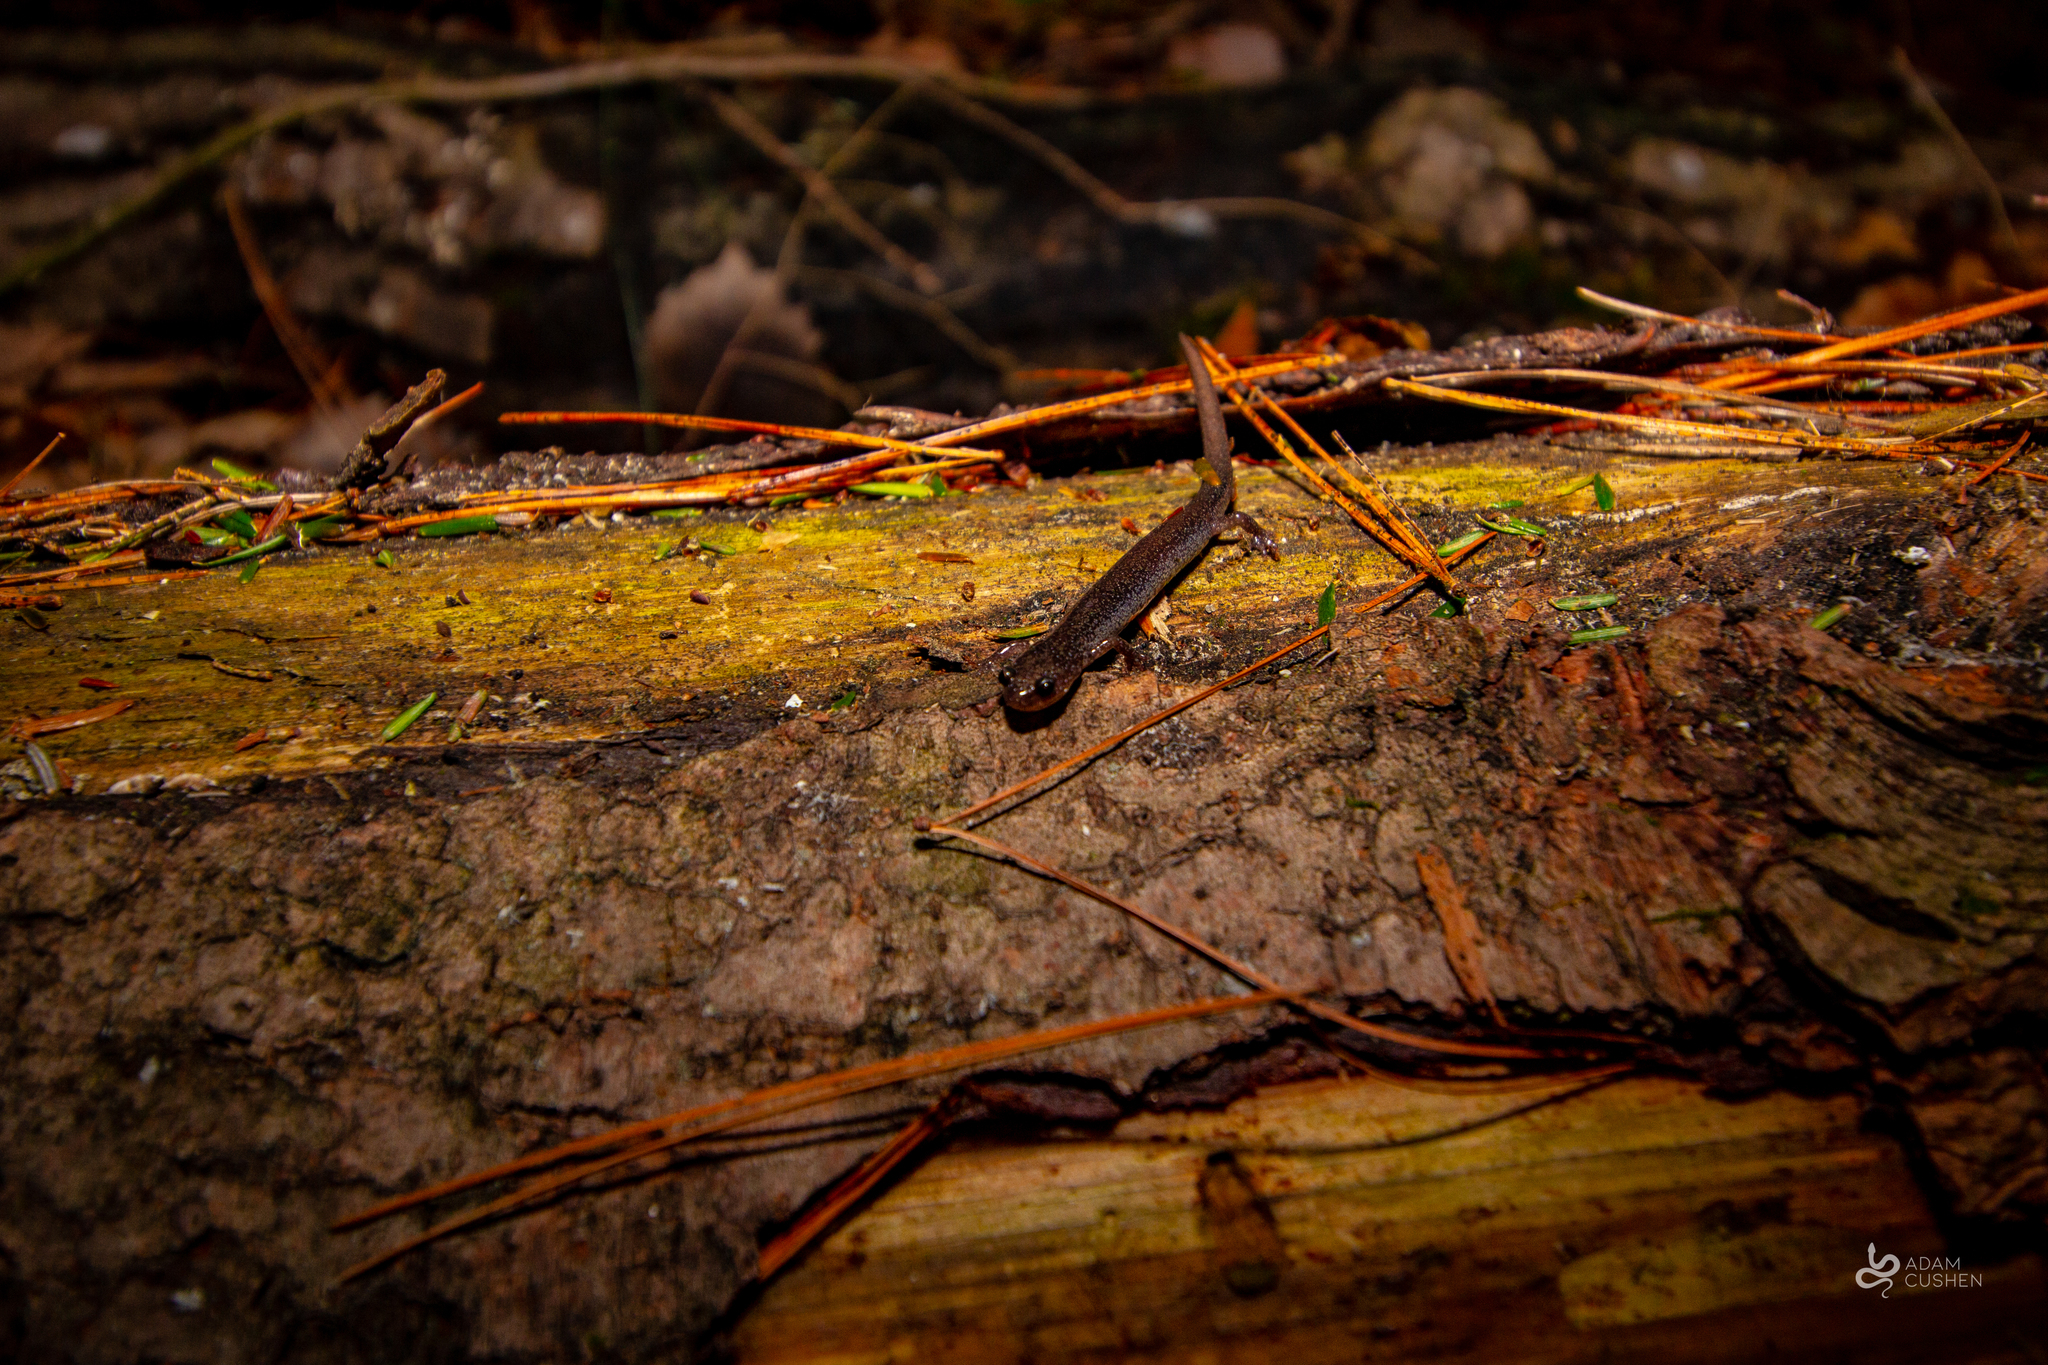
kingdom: Animalia
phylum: Chordata
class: Amphibia
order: Caudata
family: Plethodontidae
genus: Plethodon
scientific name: Plethodon cinereus
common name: Redback salamander
